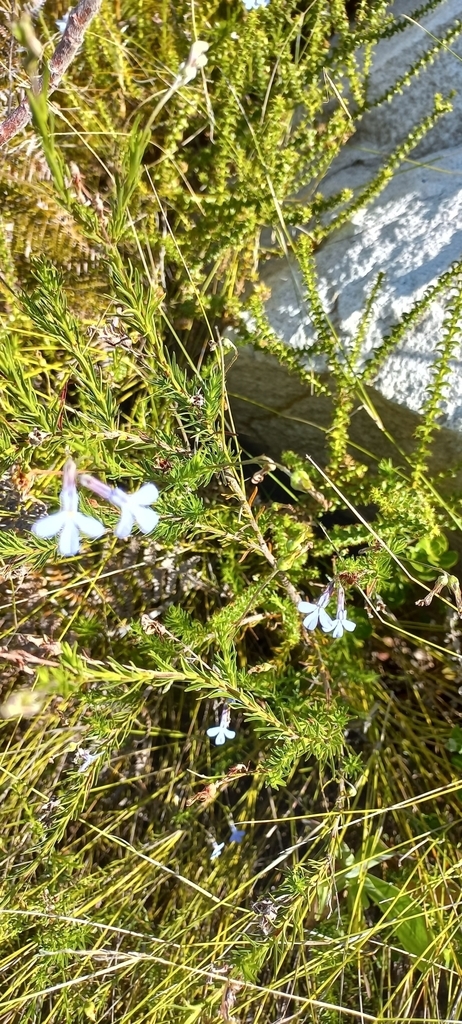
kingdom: Plantae
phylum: Tracheophyta
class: Magnoliopsida
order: Asterales
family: Asteraceae
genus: Cullumia
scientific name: Cullumia setosa
